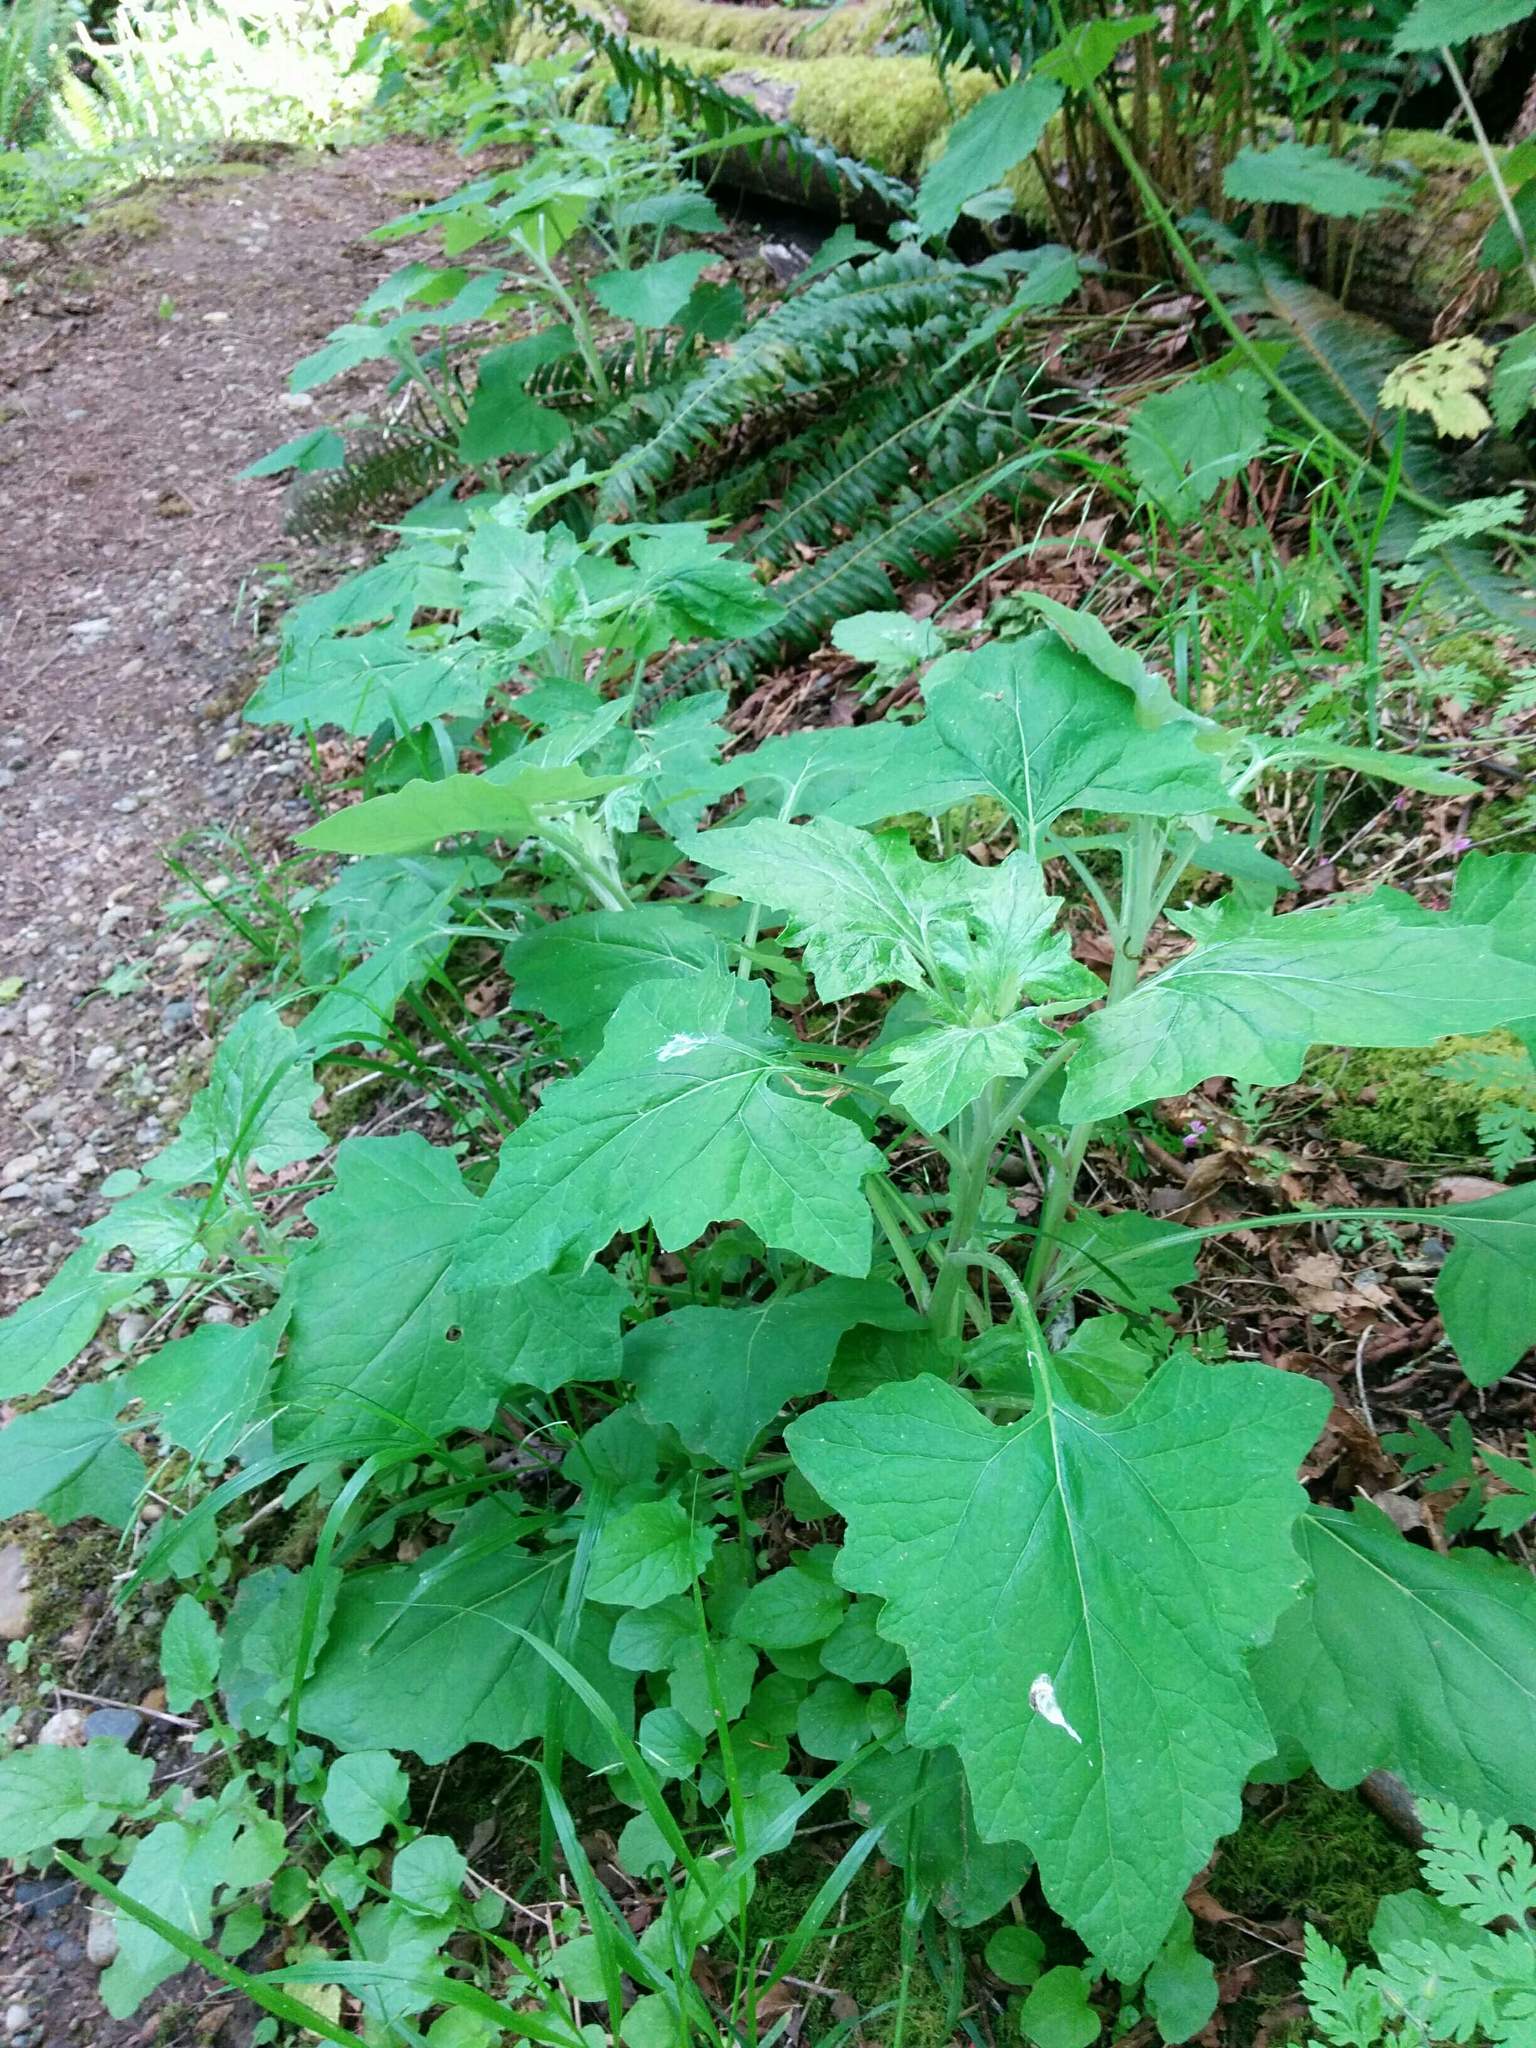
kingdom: Plantae
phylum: Tracheophyta
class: Magnoliopsida
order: Asterales
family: Asteraceae
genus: Adenocaulon
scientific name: Adenocaulon bicolor
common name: Trailplant
